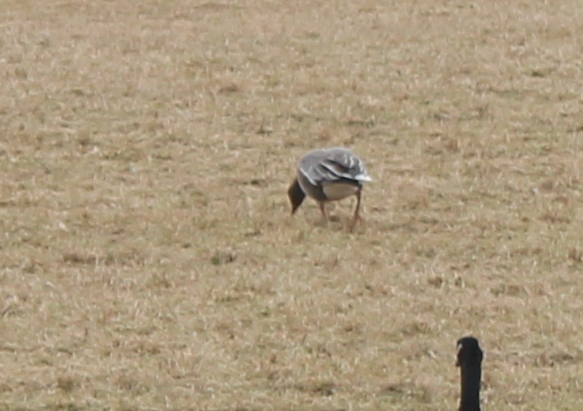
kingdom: Animalia
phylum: Chordata
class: Aves
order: Anseriformes
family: Anatidae
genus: Anser
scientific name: Anser brachyrhynchus
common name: Pink-footed goose
